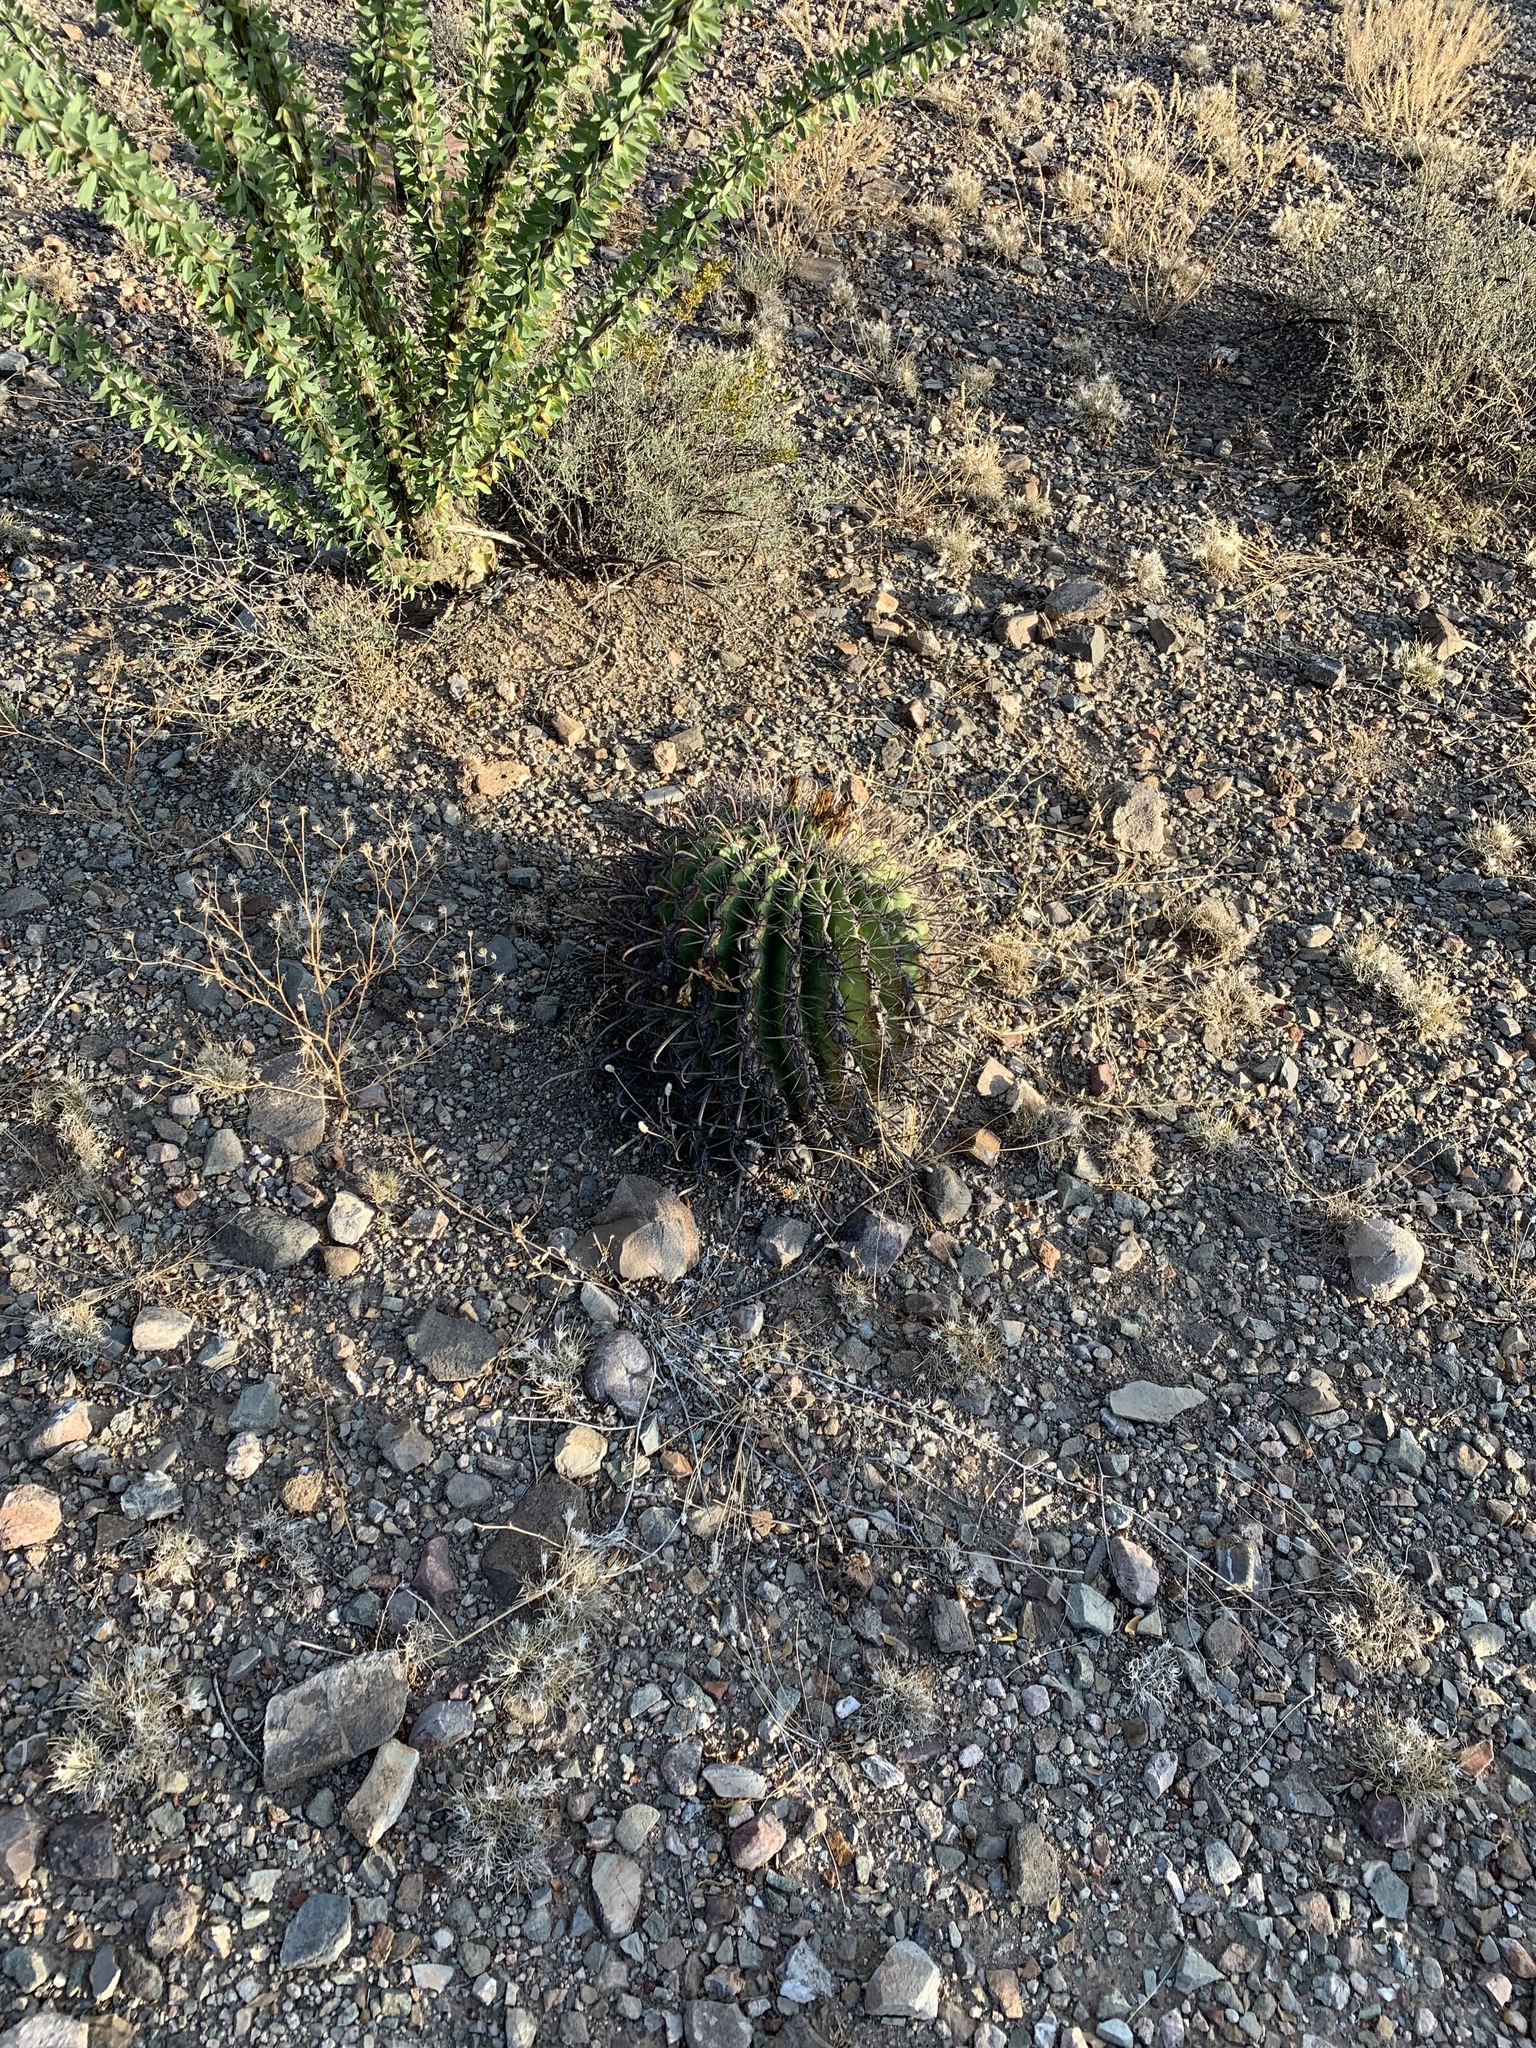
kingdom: Plantae
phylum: Tracheophyta
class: Magnoliopsida
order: Caryophyllales
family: Cactaceae
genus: Ferocactus
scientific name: Ferocactus wislizeni
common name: Candy barrel cactus
